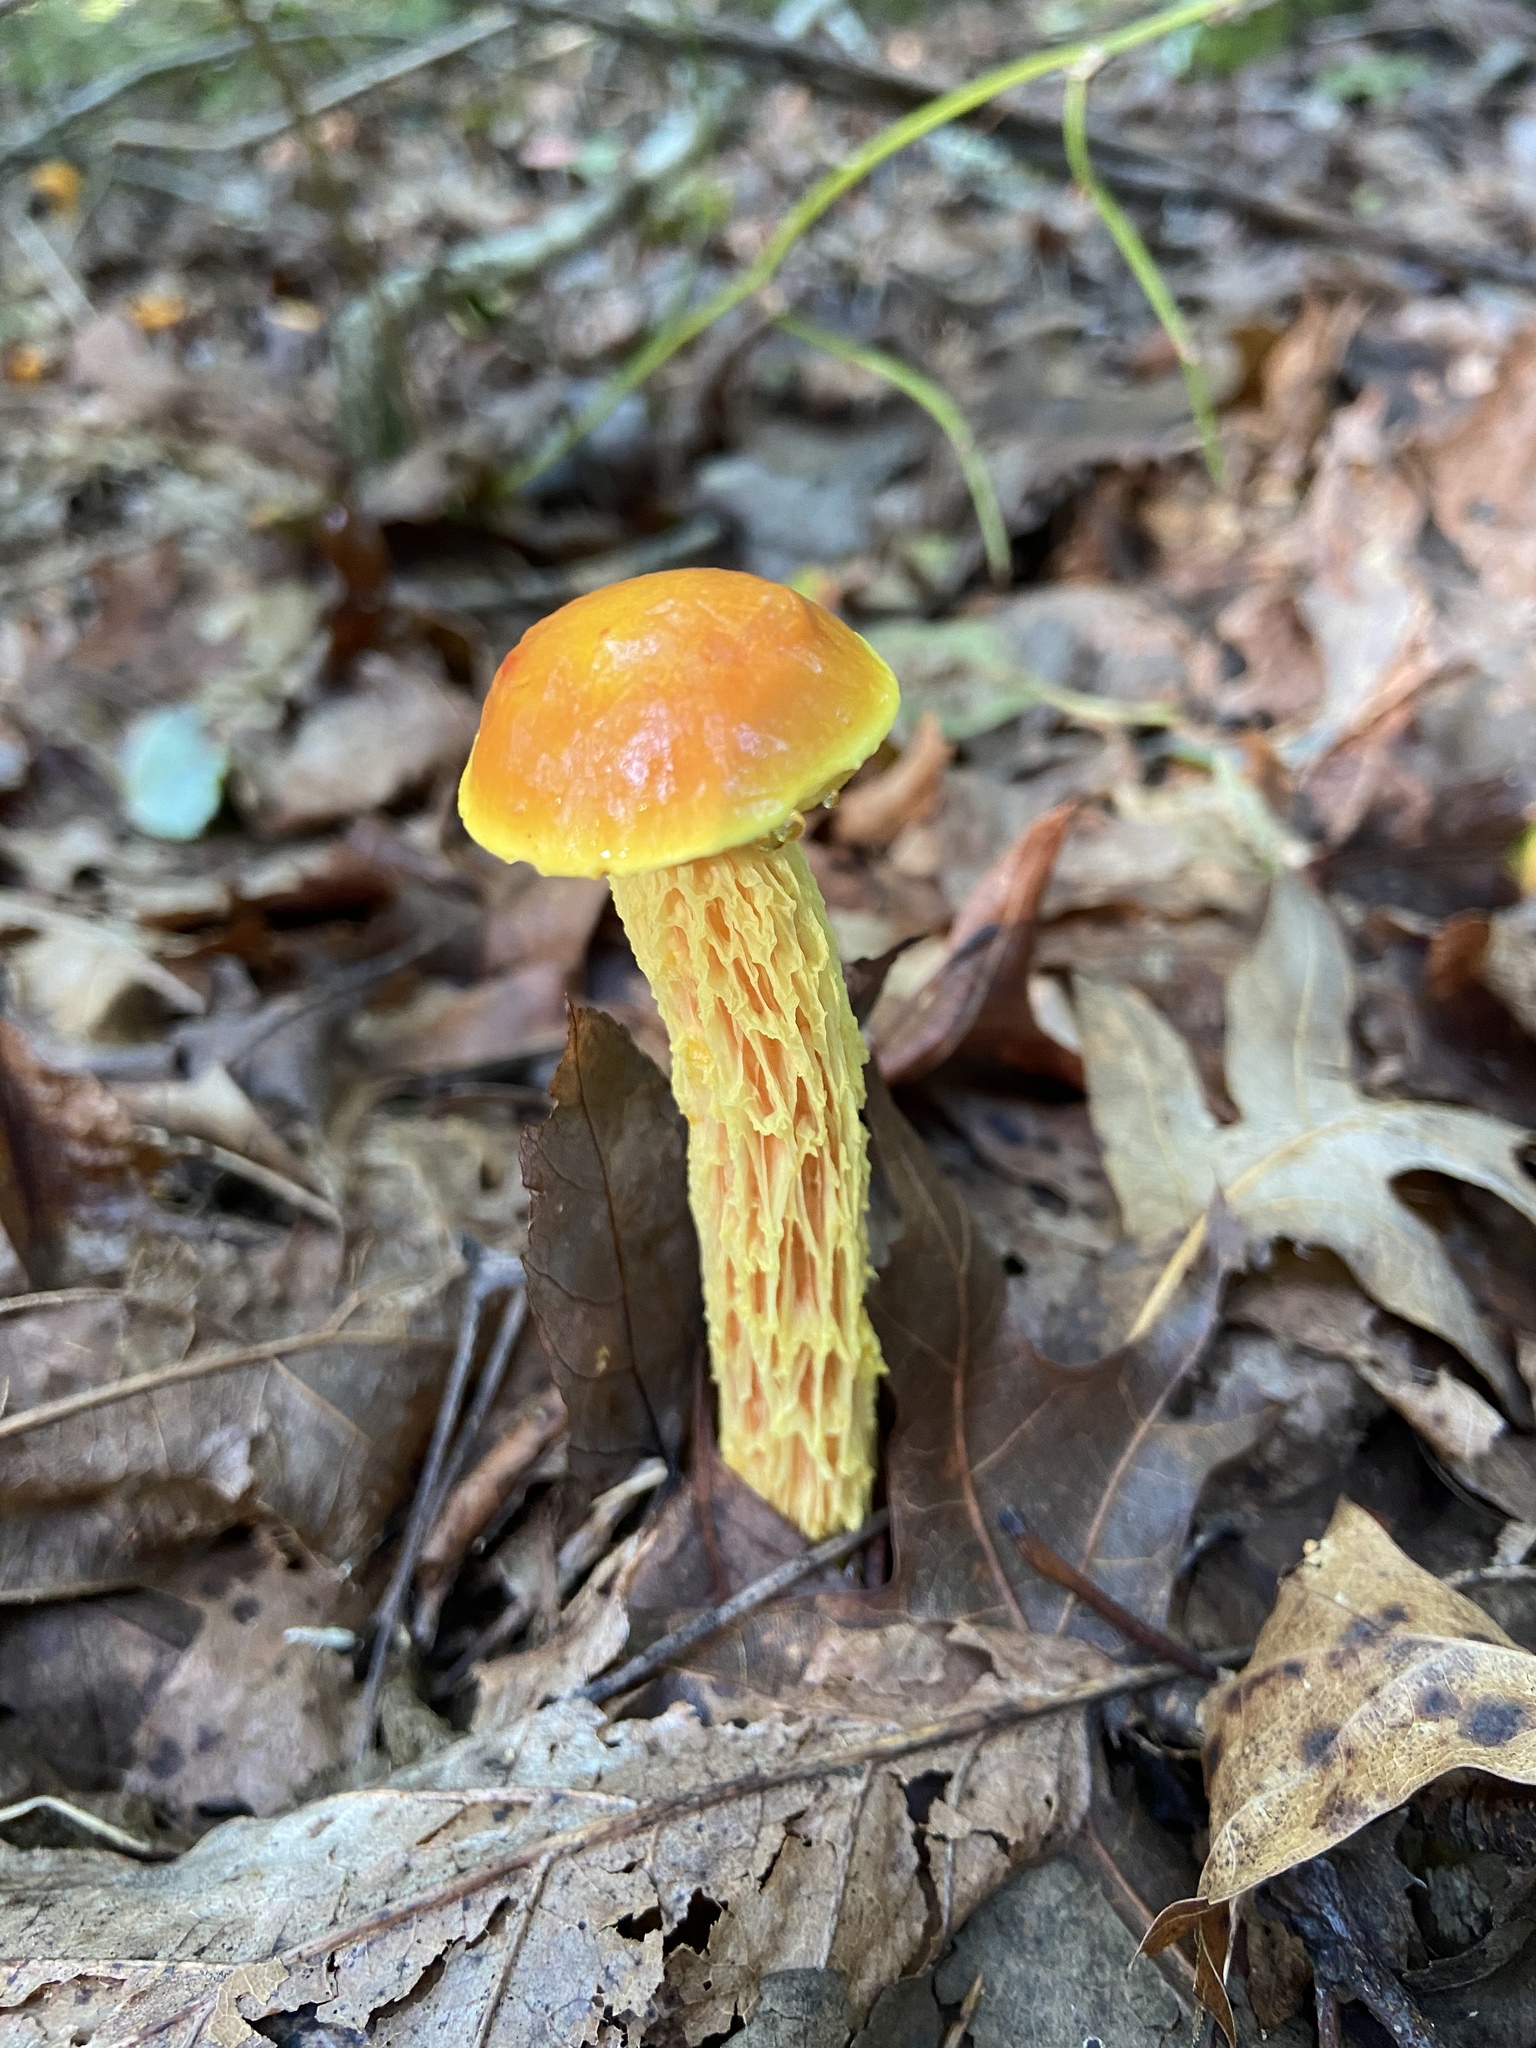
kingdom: Fungi
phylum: Basidiomycota
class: Agaricomycetes
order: Boletales
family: Boletaceae
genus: Aureoboletus
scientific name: Aureoboletus betula
